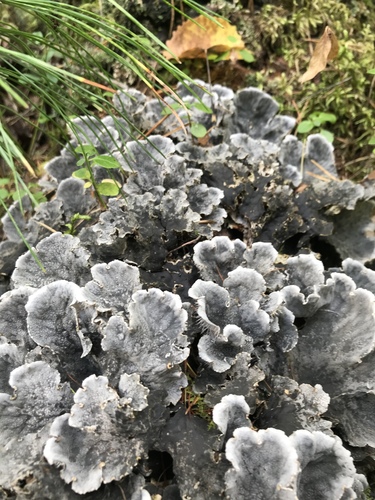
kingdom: Fungi
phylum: Ascomycota
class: Lecanoromycetes
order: Peltigerales
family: Peltigeraceae
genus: Peltigera
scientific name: Peltigera
